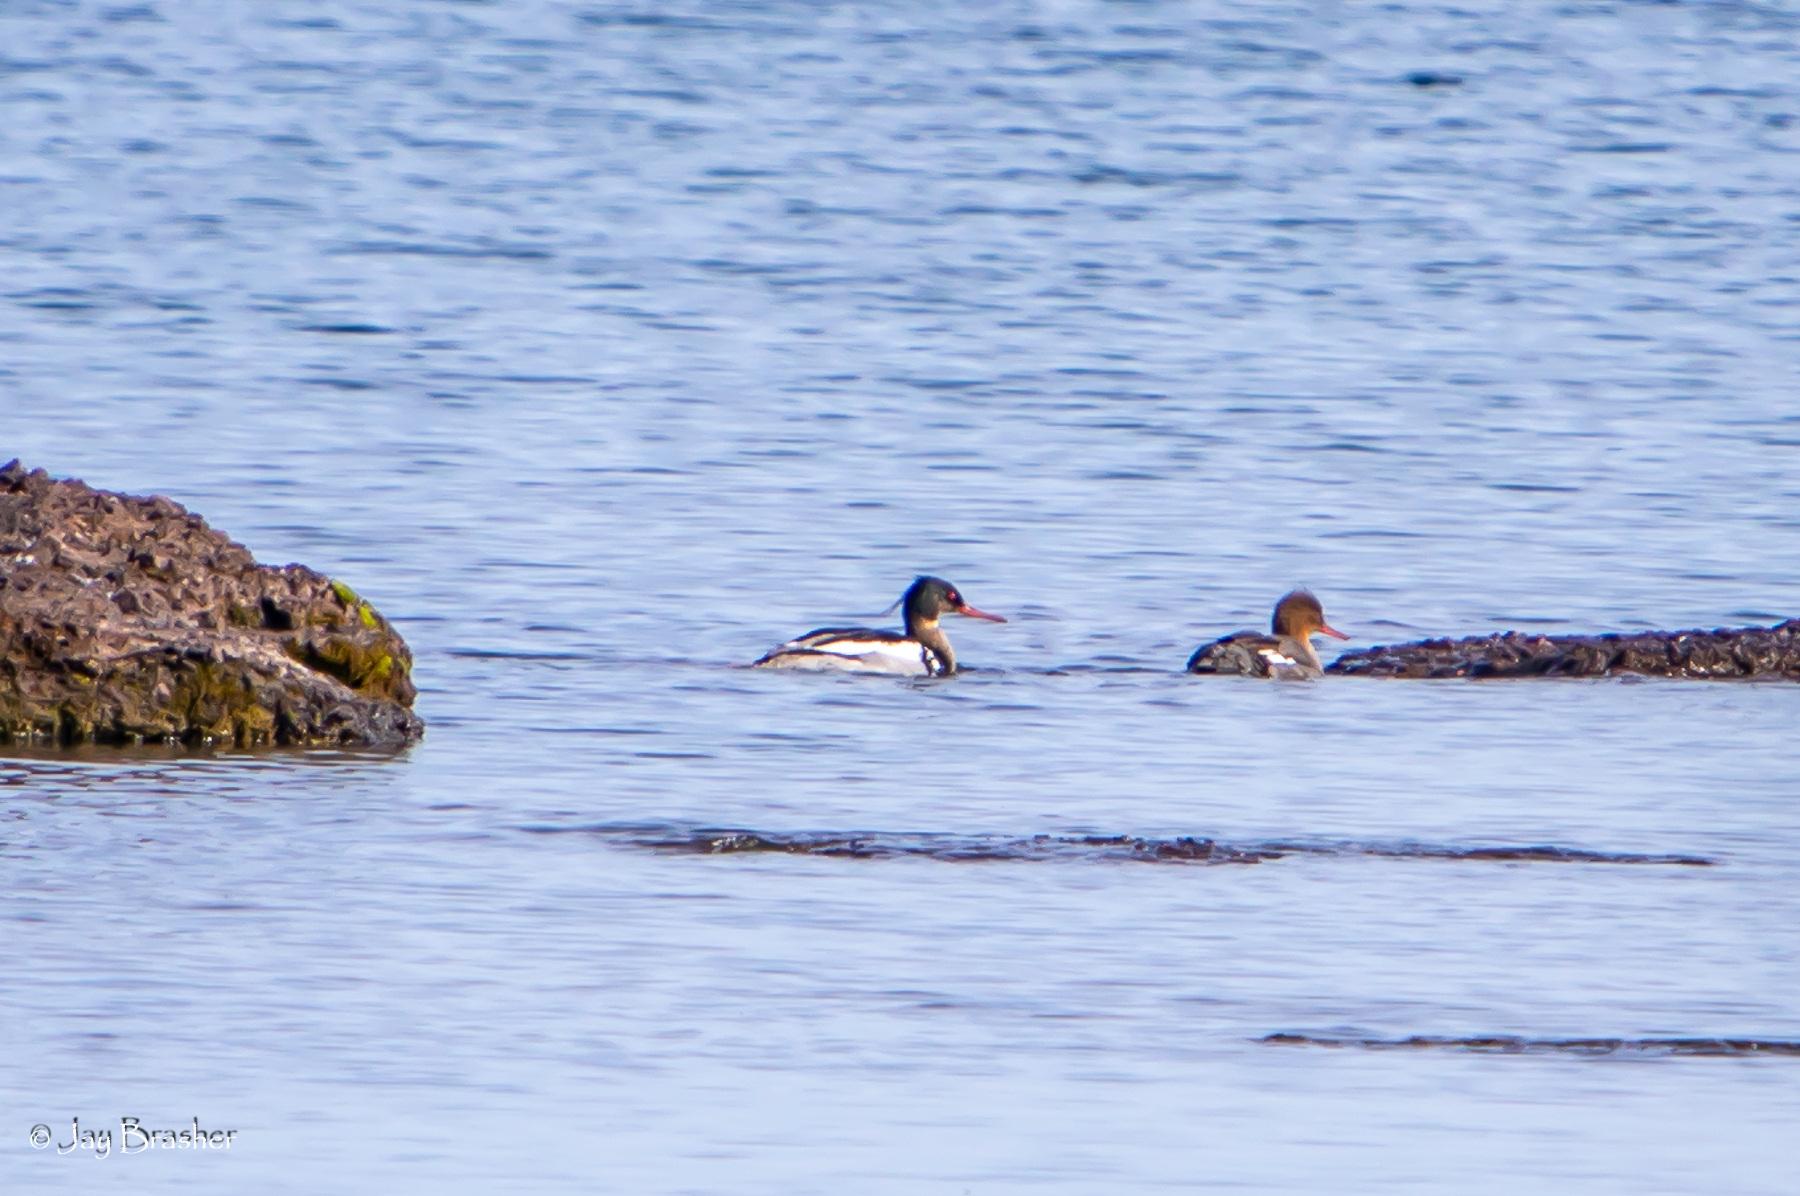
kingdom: Animalia
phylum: Chordata
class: Aves
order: Anseriformes
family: Anatidae
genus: Mergus
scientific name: Mergus serrator
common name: Red-breasted merganser
